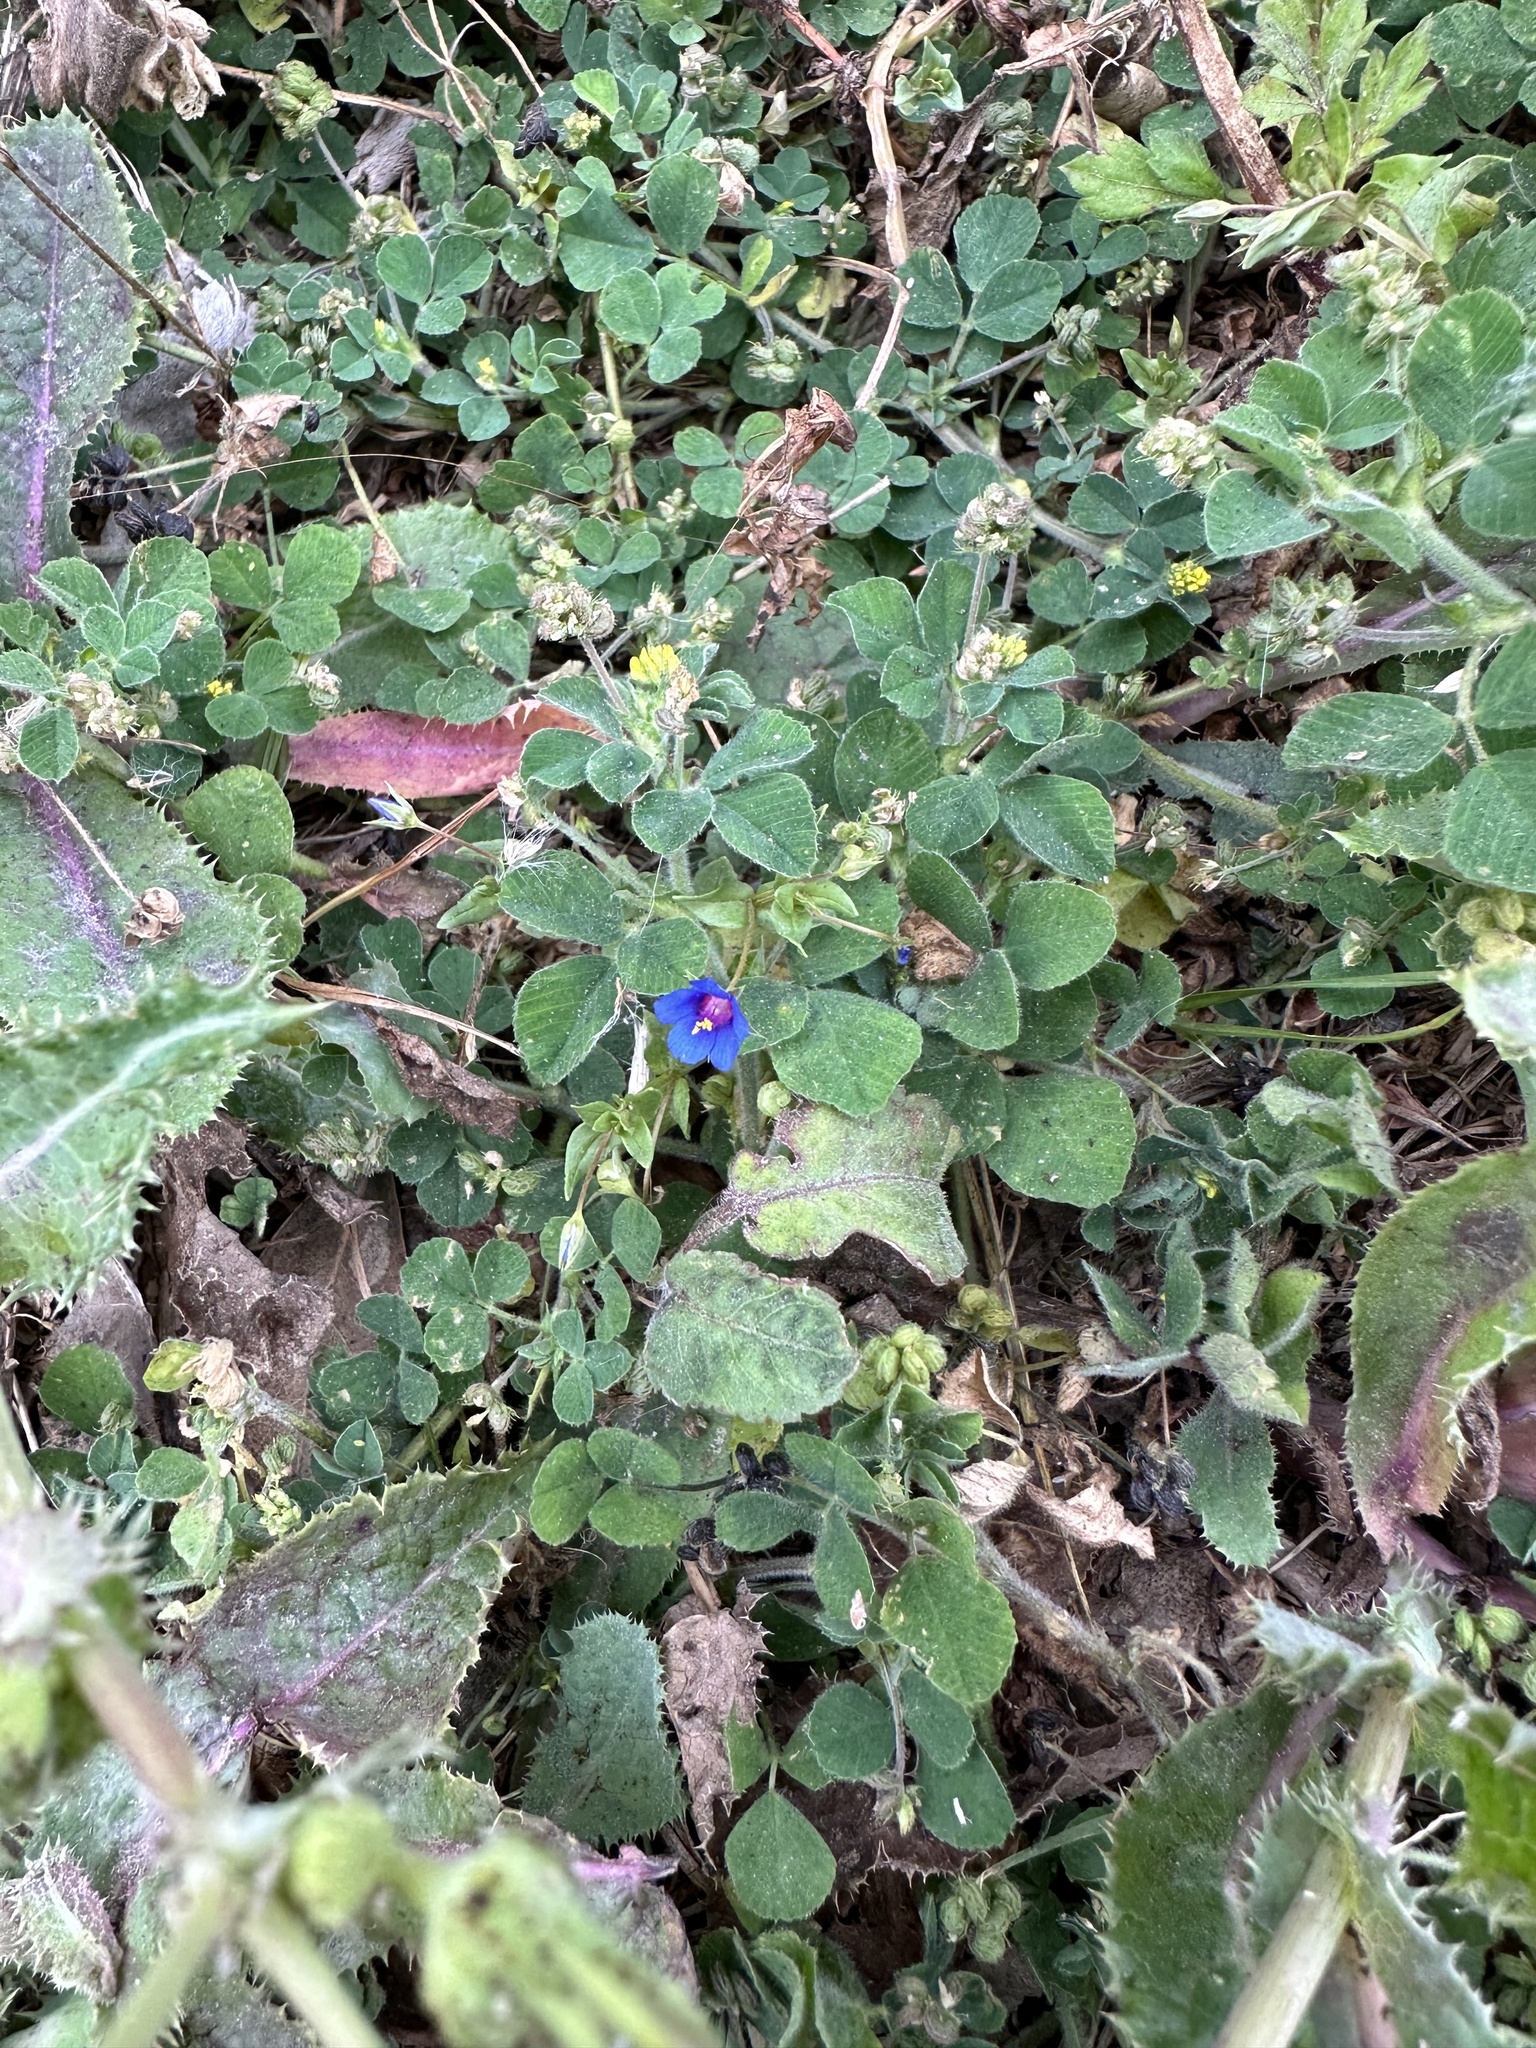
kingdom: Plantae
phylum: Tracheophyta
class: Magnoliopsida
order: Ericales
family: Primulaceae
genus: Lysimachia
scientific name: Lysimachia loeflingii
